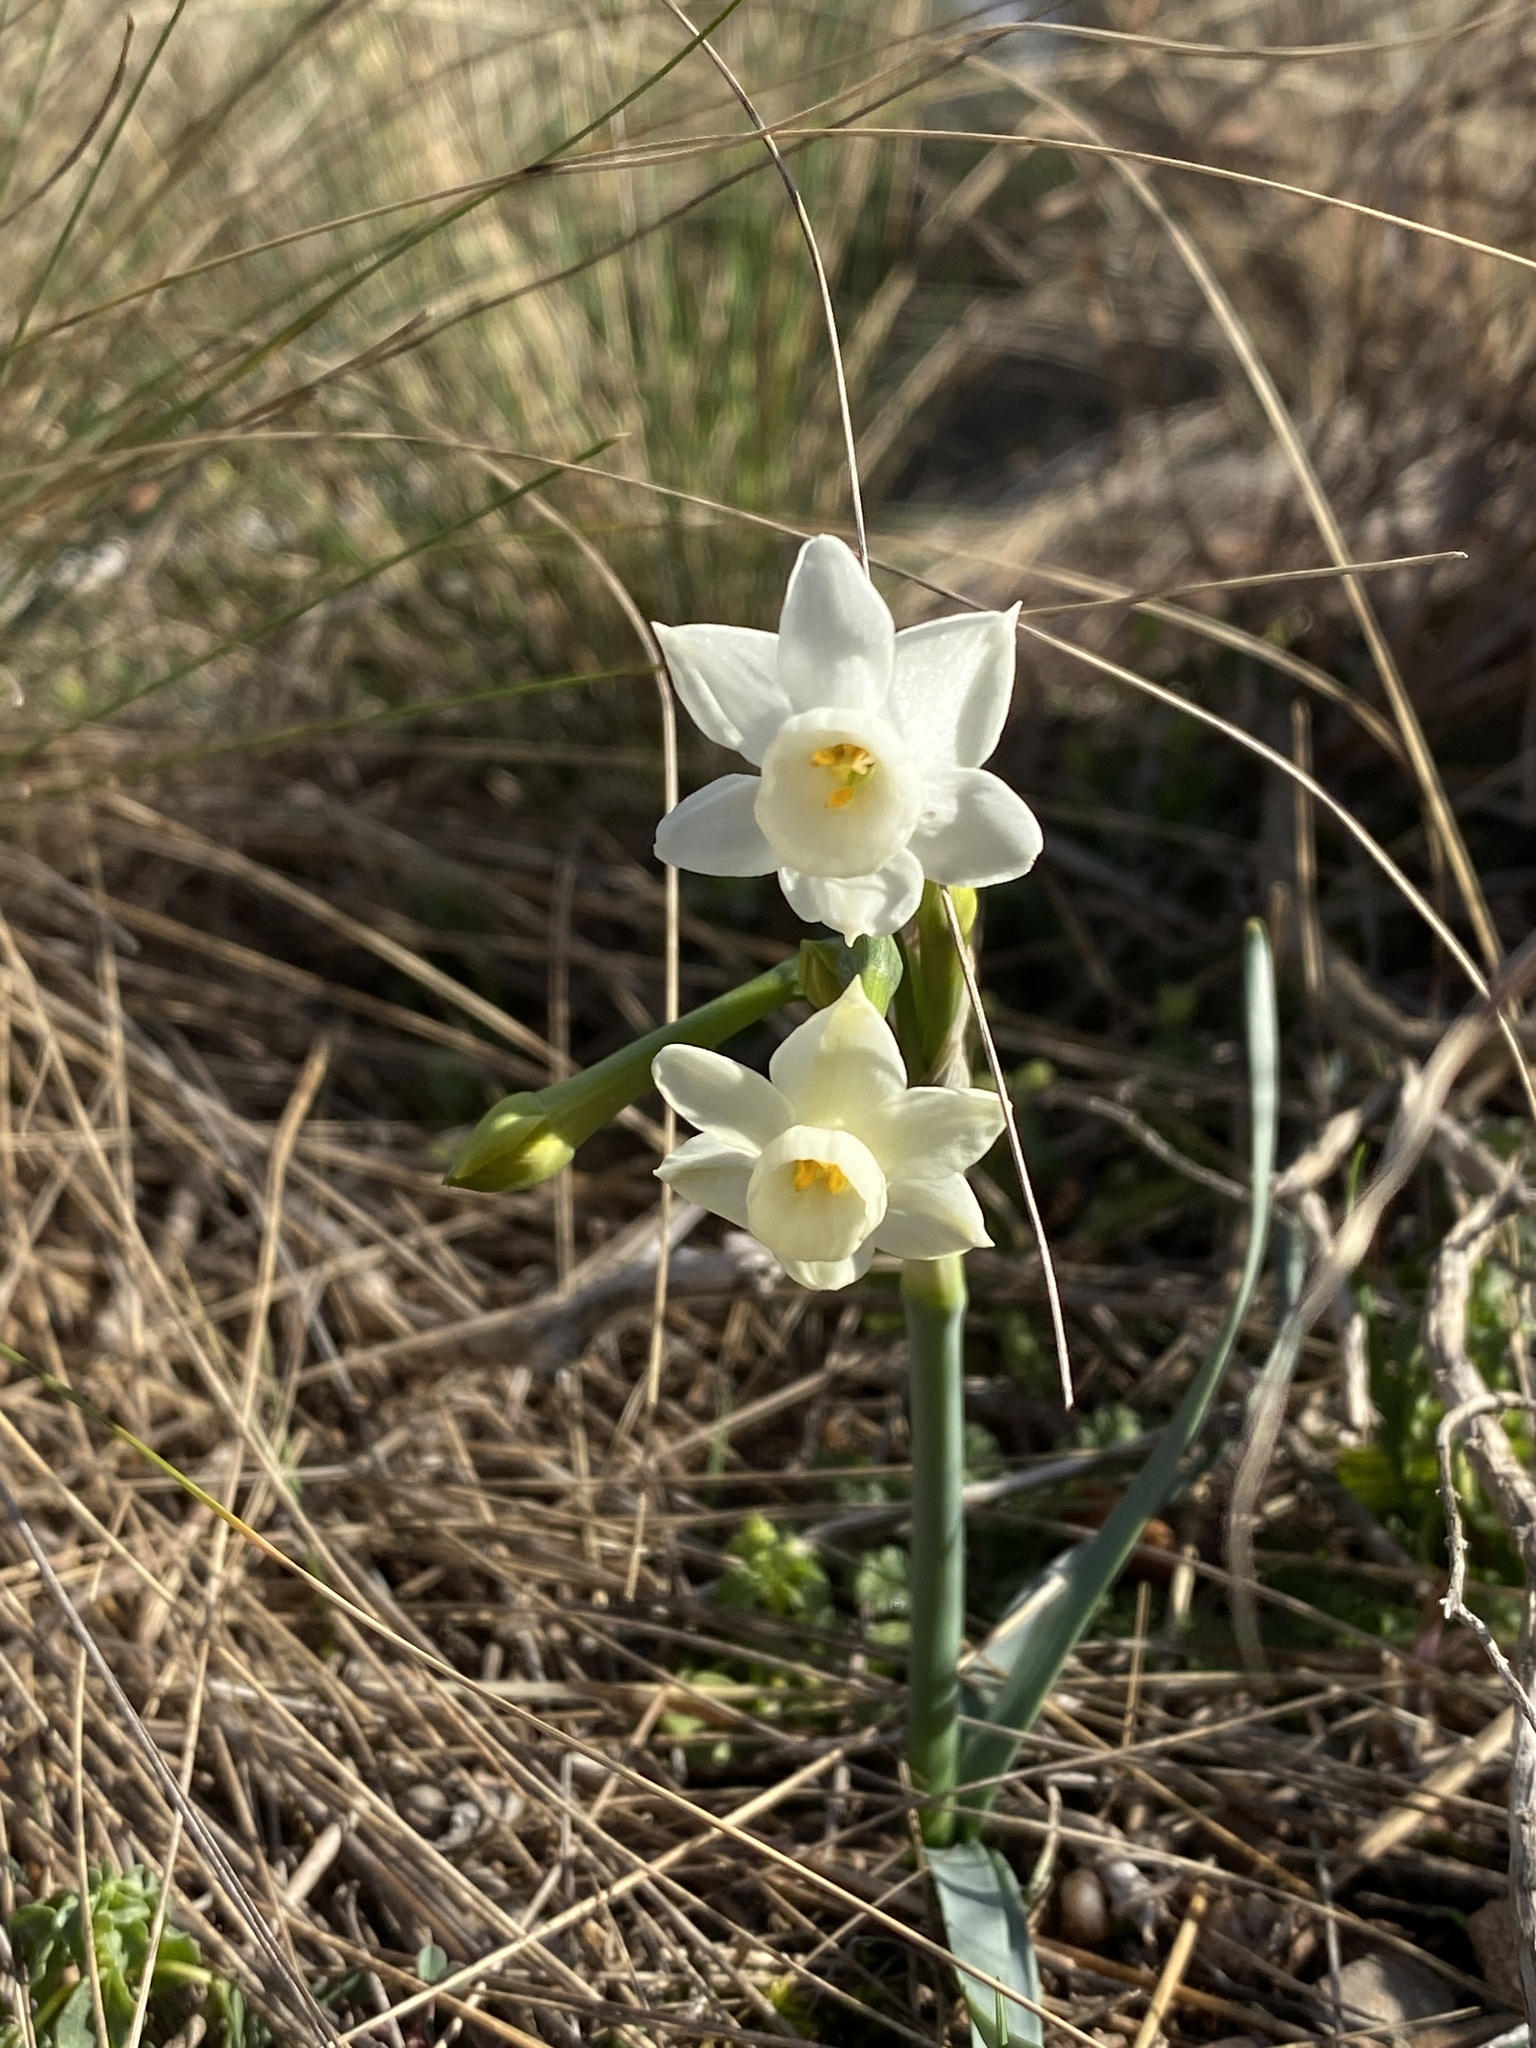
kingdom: Plantae
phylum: Tracheophyta
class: Liliopsida
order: Asparagales
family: Amaryllidaceae
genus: Narcissus
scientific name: Narcissus dubius
